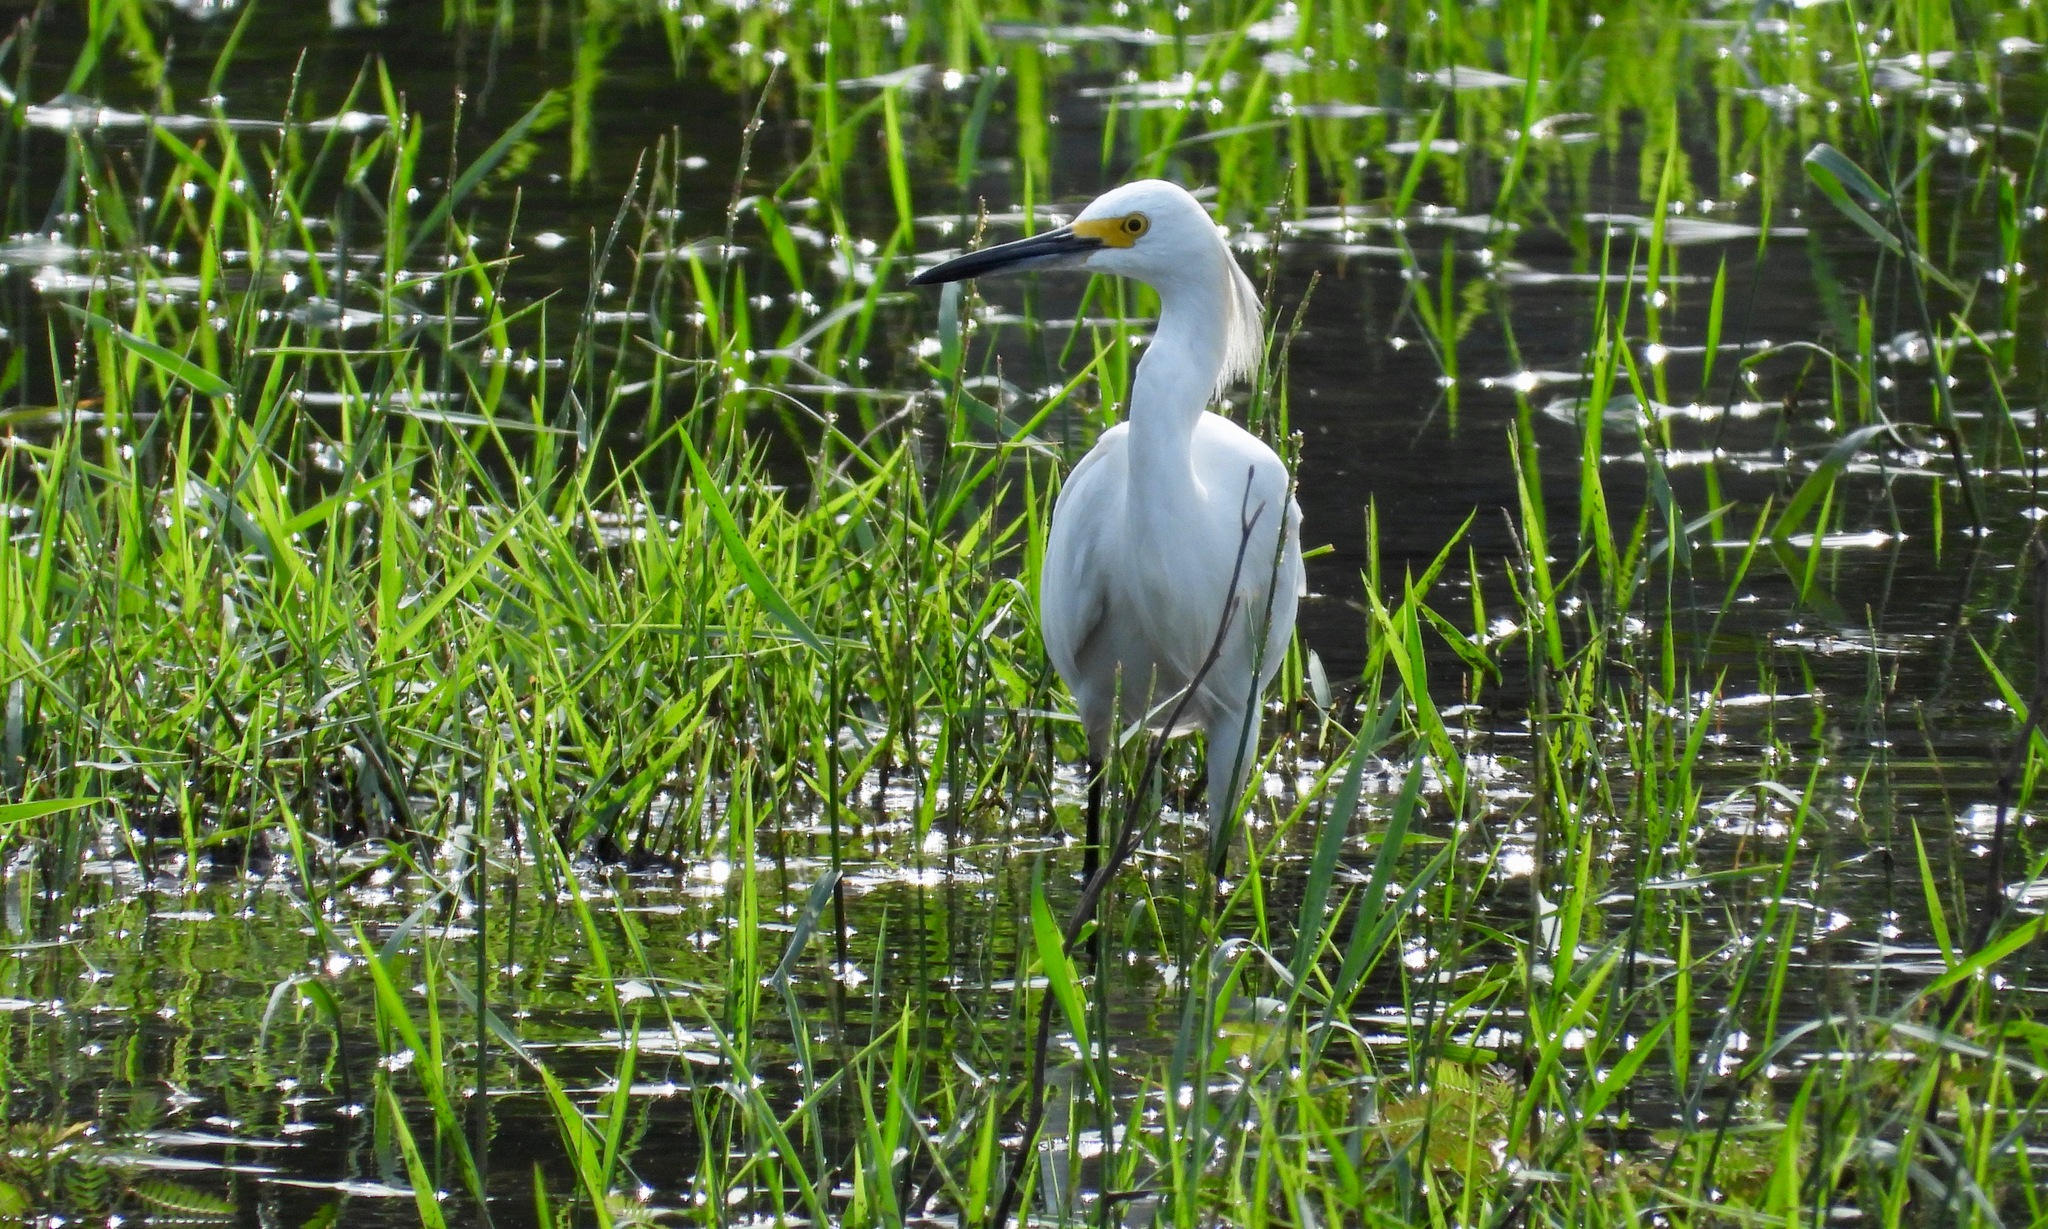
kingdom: Animalia
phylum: Chordata
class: Aves
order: Pelecaniformes
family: Ardeidae
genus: Egretta
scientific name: Egretta thula
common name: Snowy egret
